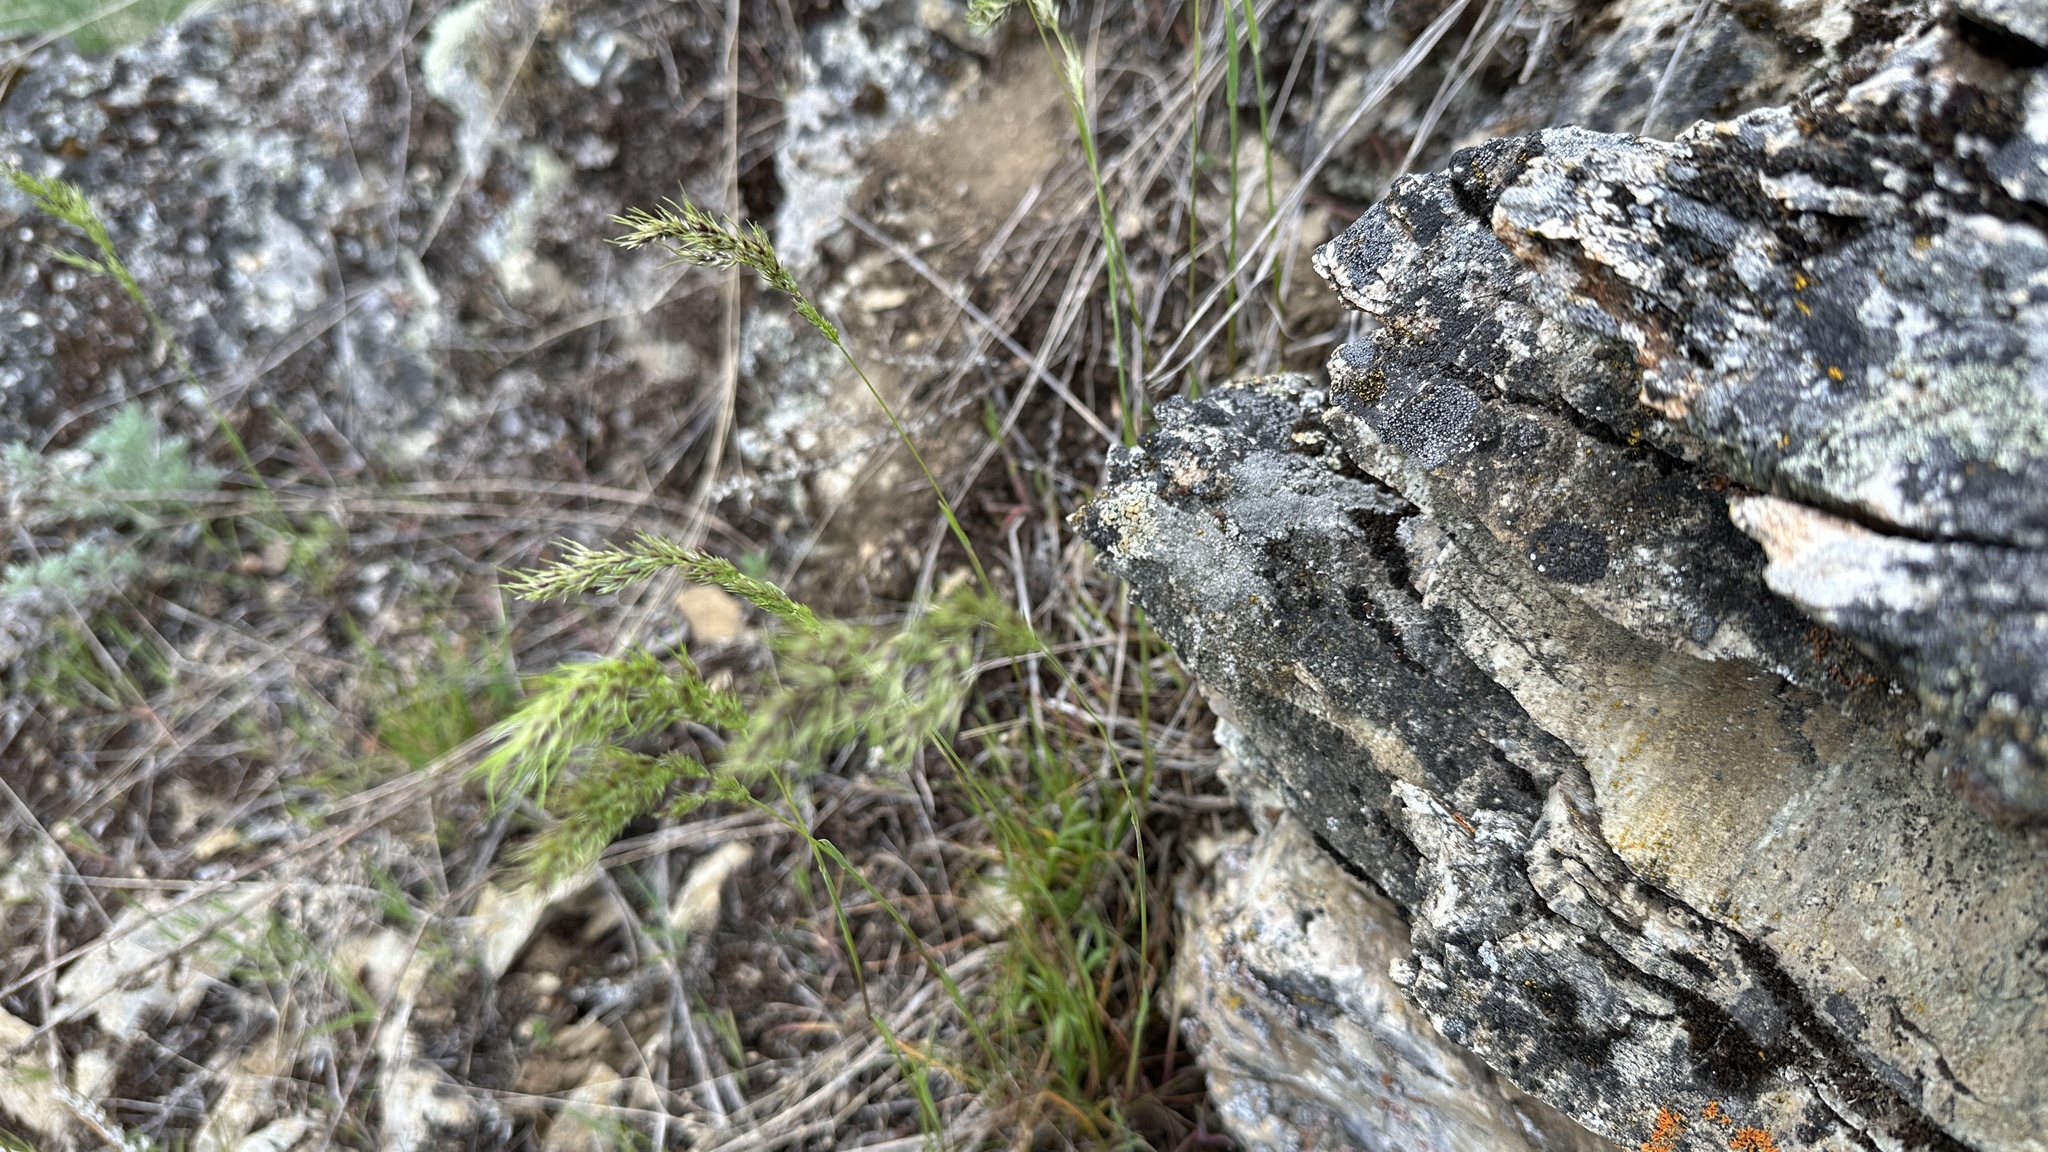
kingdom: Plantae
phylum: Tracheophyta
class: Liliopsida
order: Poales
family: Poaceae
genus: Poa
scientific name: Poa bulbosa
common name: Bulbous bluegrass
